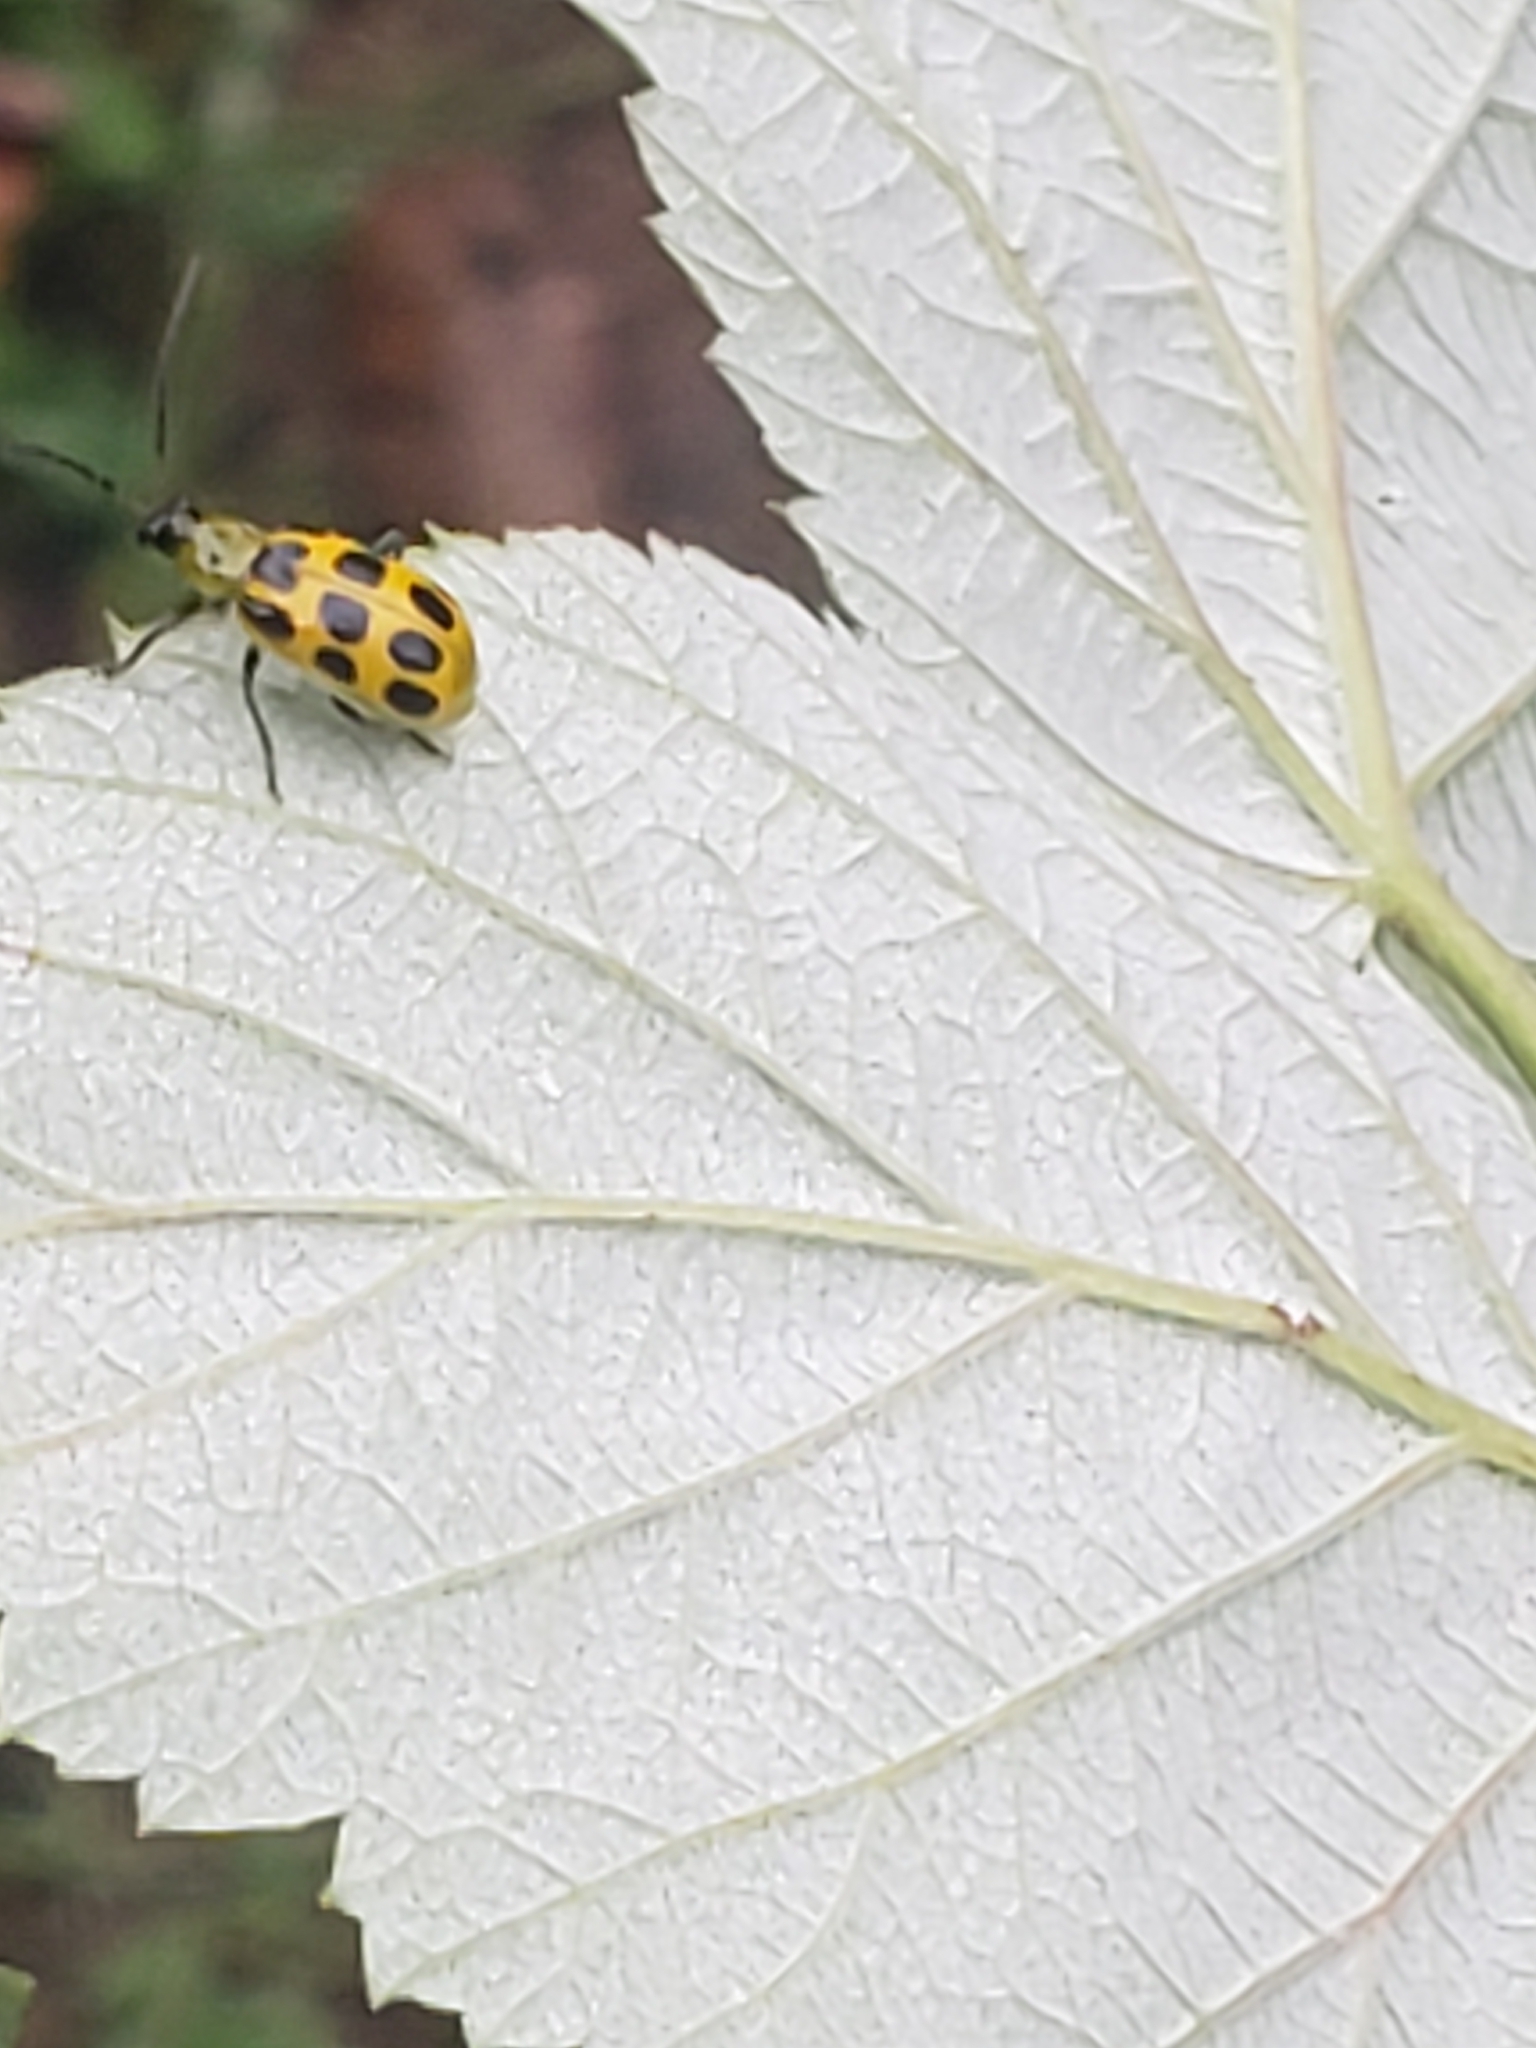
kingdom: Animalia
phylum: Arthropoda
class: Insecta
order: Coleoptera
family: Chrysomelidae
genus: Diabrotica
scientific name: Diabrotica undecimpunctata
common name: Spotted cucumber beetle
